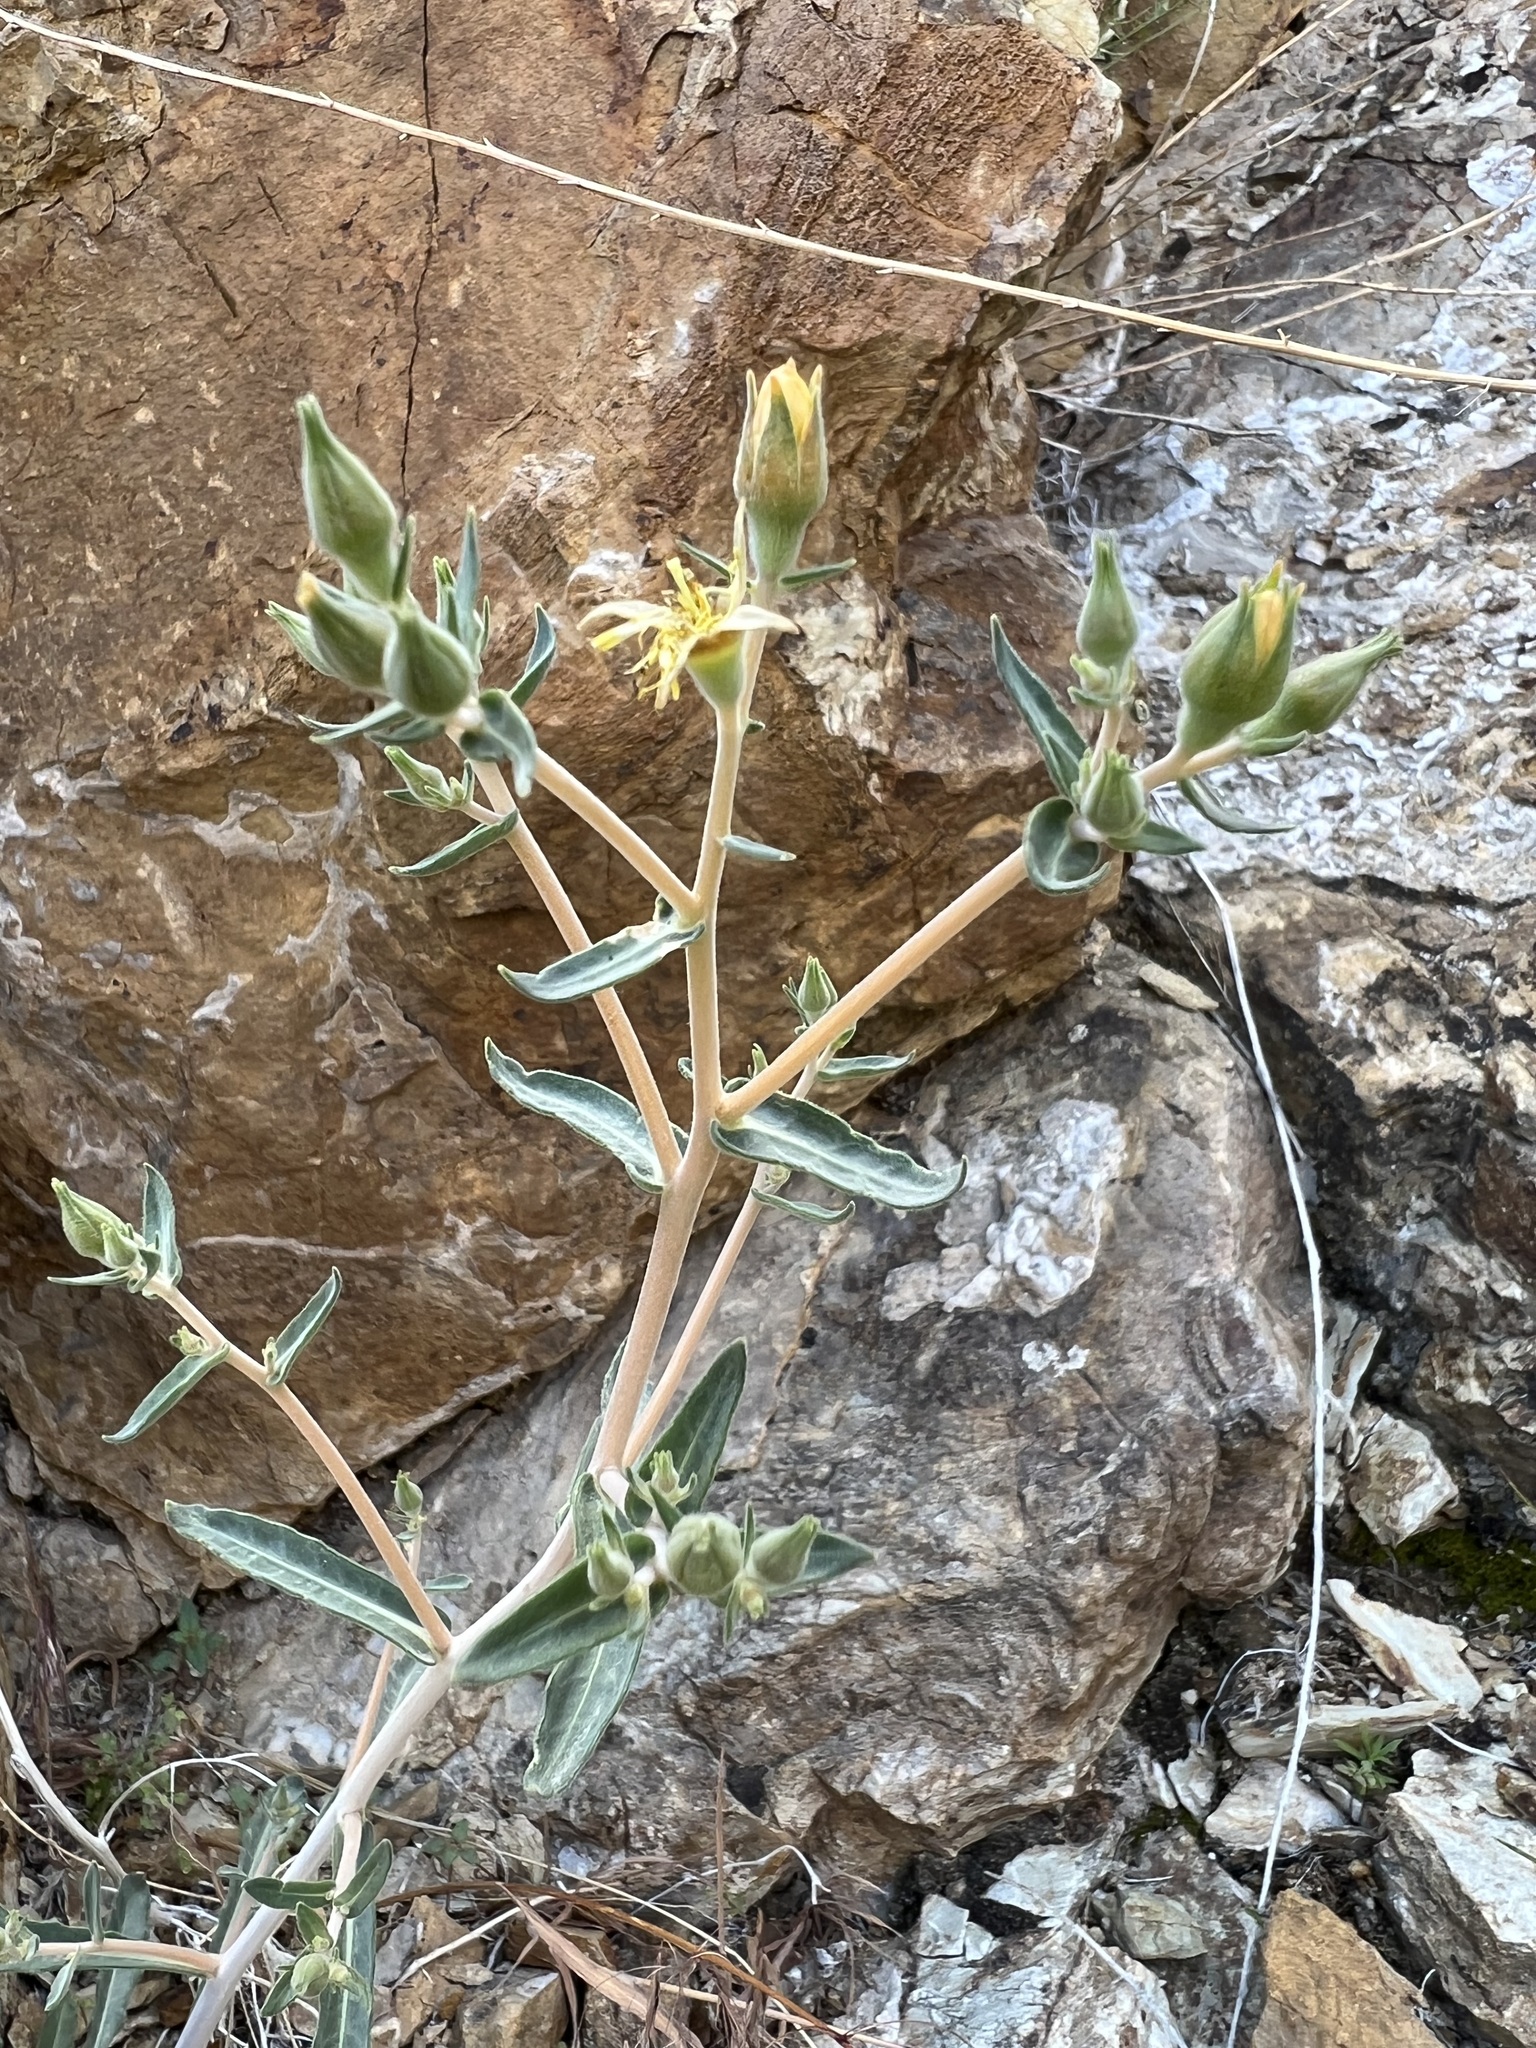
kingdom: Plantae
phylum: Tracheophyta
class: Magnoliopsida
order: Cornales
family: Loasaceae
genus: Mentzelia
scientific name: Mentzelia oreophila
